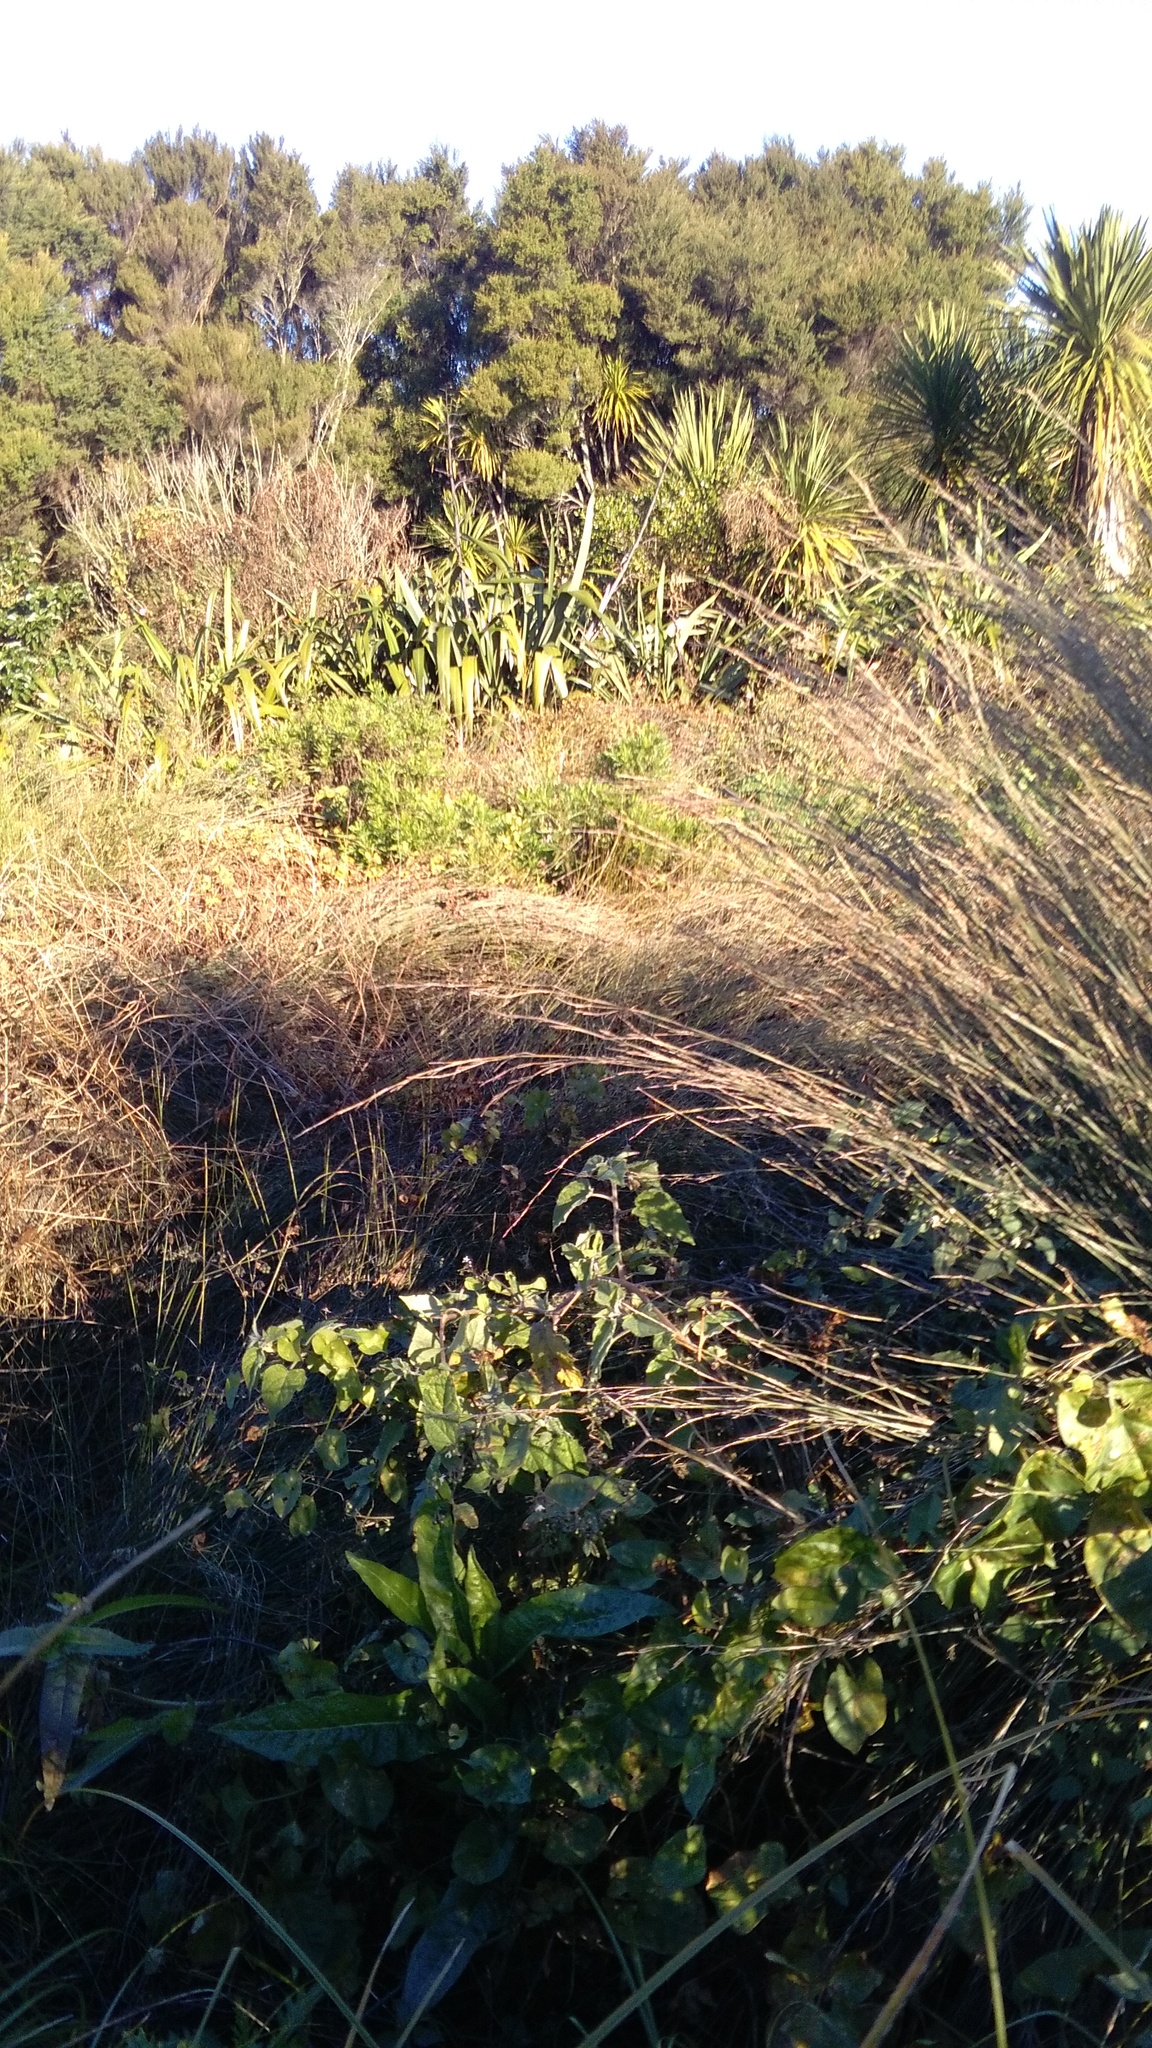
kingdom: Plantae
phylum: Tracheophyta
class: Magnoliopsida
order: Solanales
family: Solanaceae
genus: Physalis
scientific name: Physalis peruviana
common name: Cape-gooseberry
